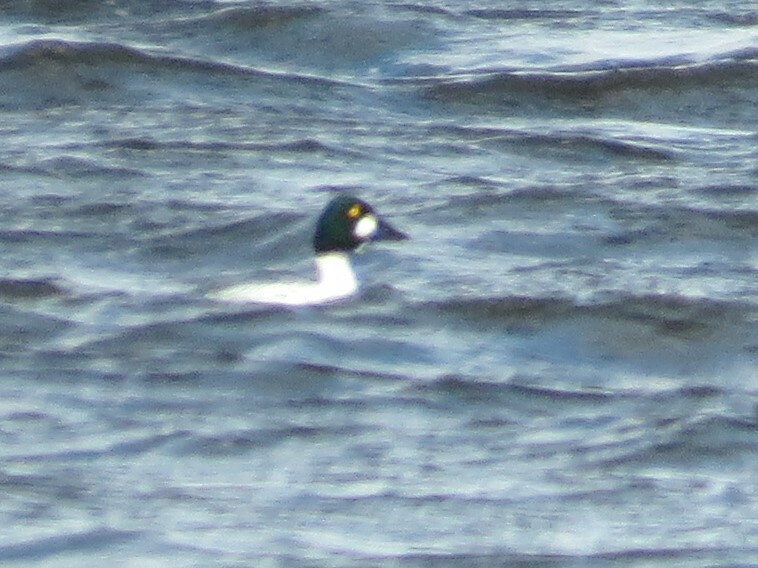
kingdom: Animalia
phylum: Chordata
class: Aves
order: Anseriformes
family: Anatidae
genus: Bucephala
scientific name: Bucephala clangula
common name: Common goldeneye
